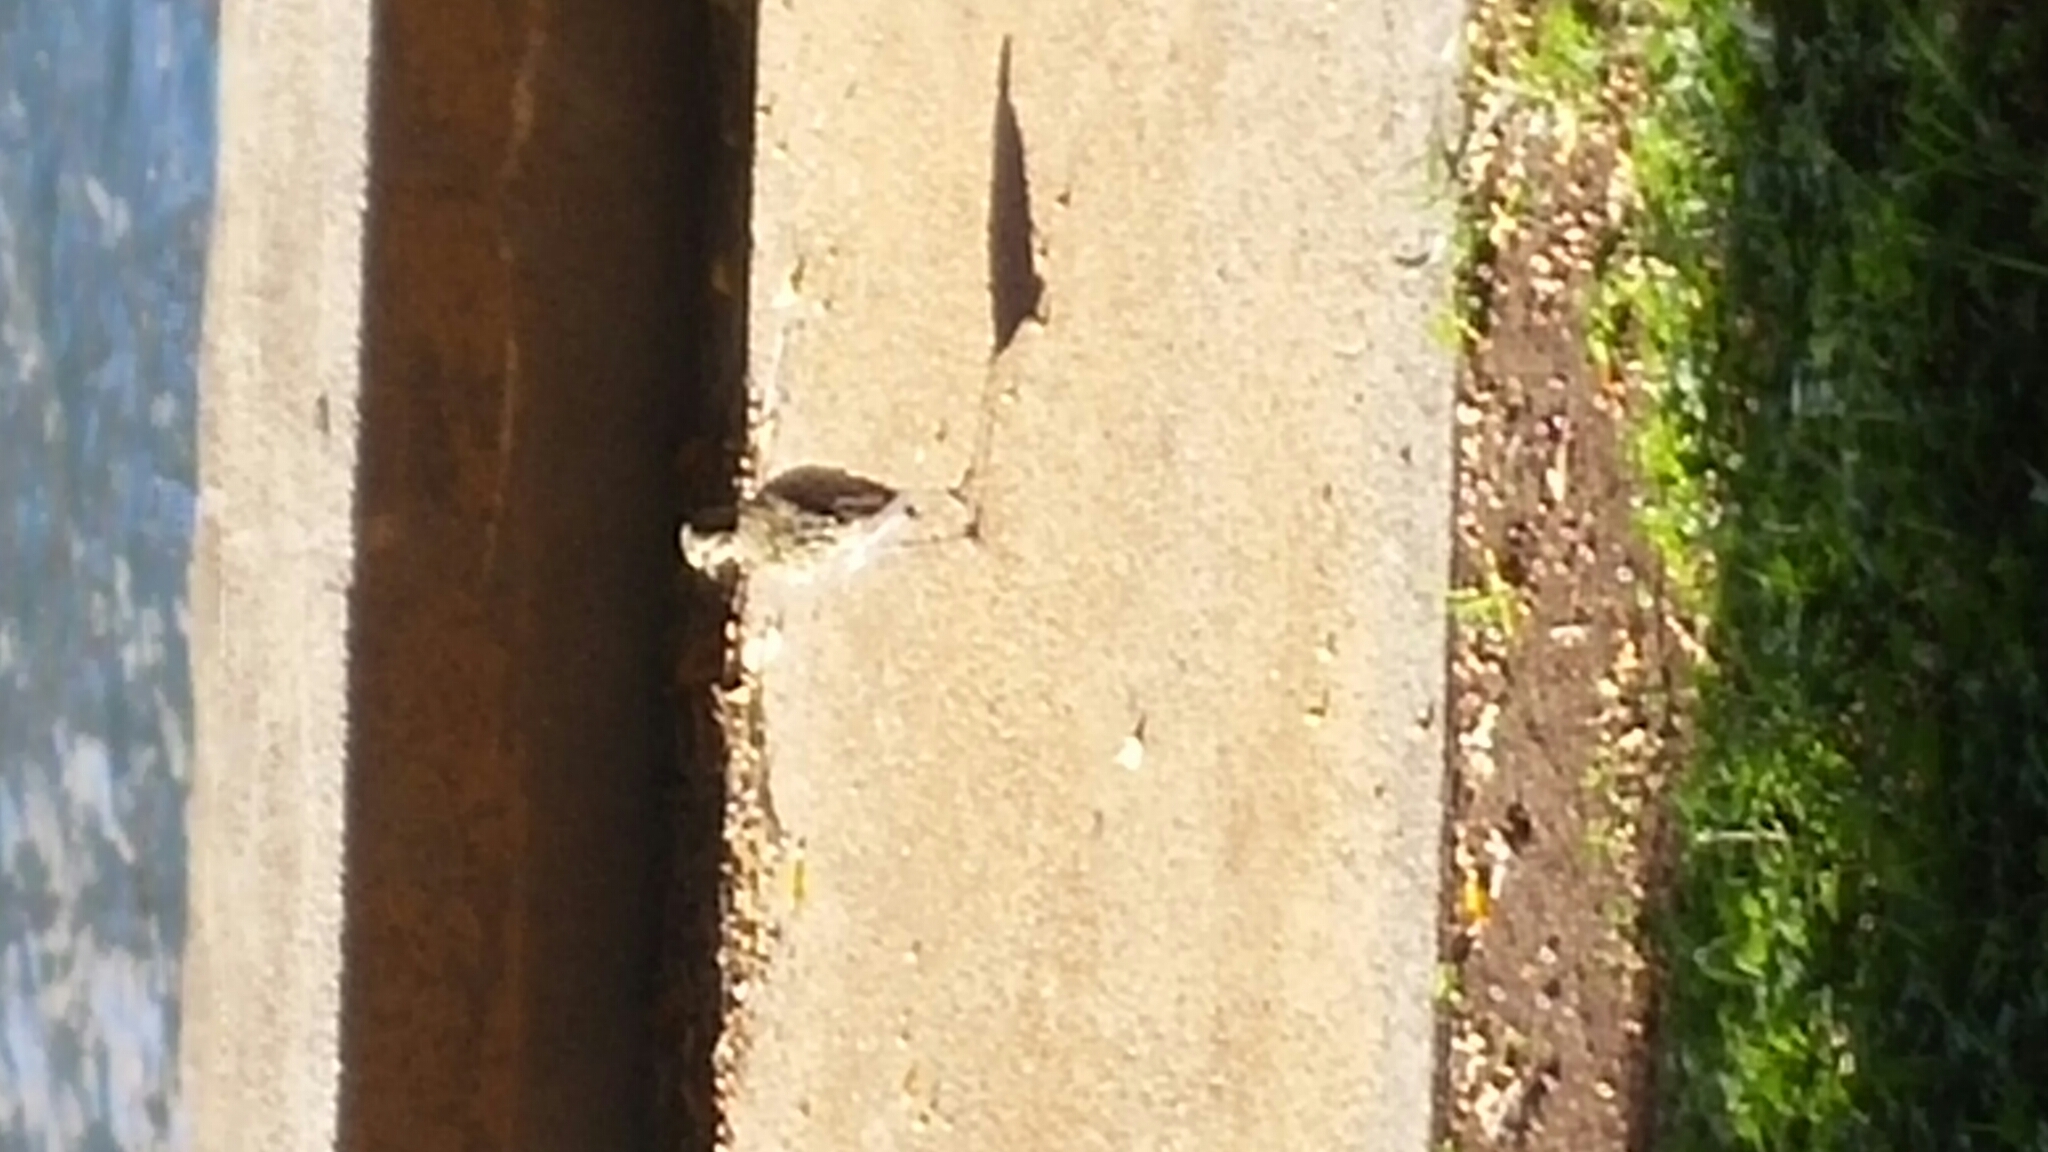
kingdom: Animalia
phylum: Chordata
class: Aves
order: Charadriiformes
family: Charadriidae
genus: Pluvialis
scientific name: Pluvialis fulva
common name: Pacific golden plover
